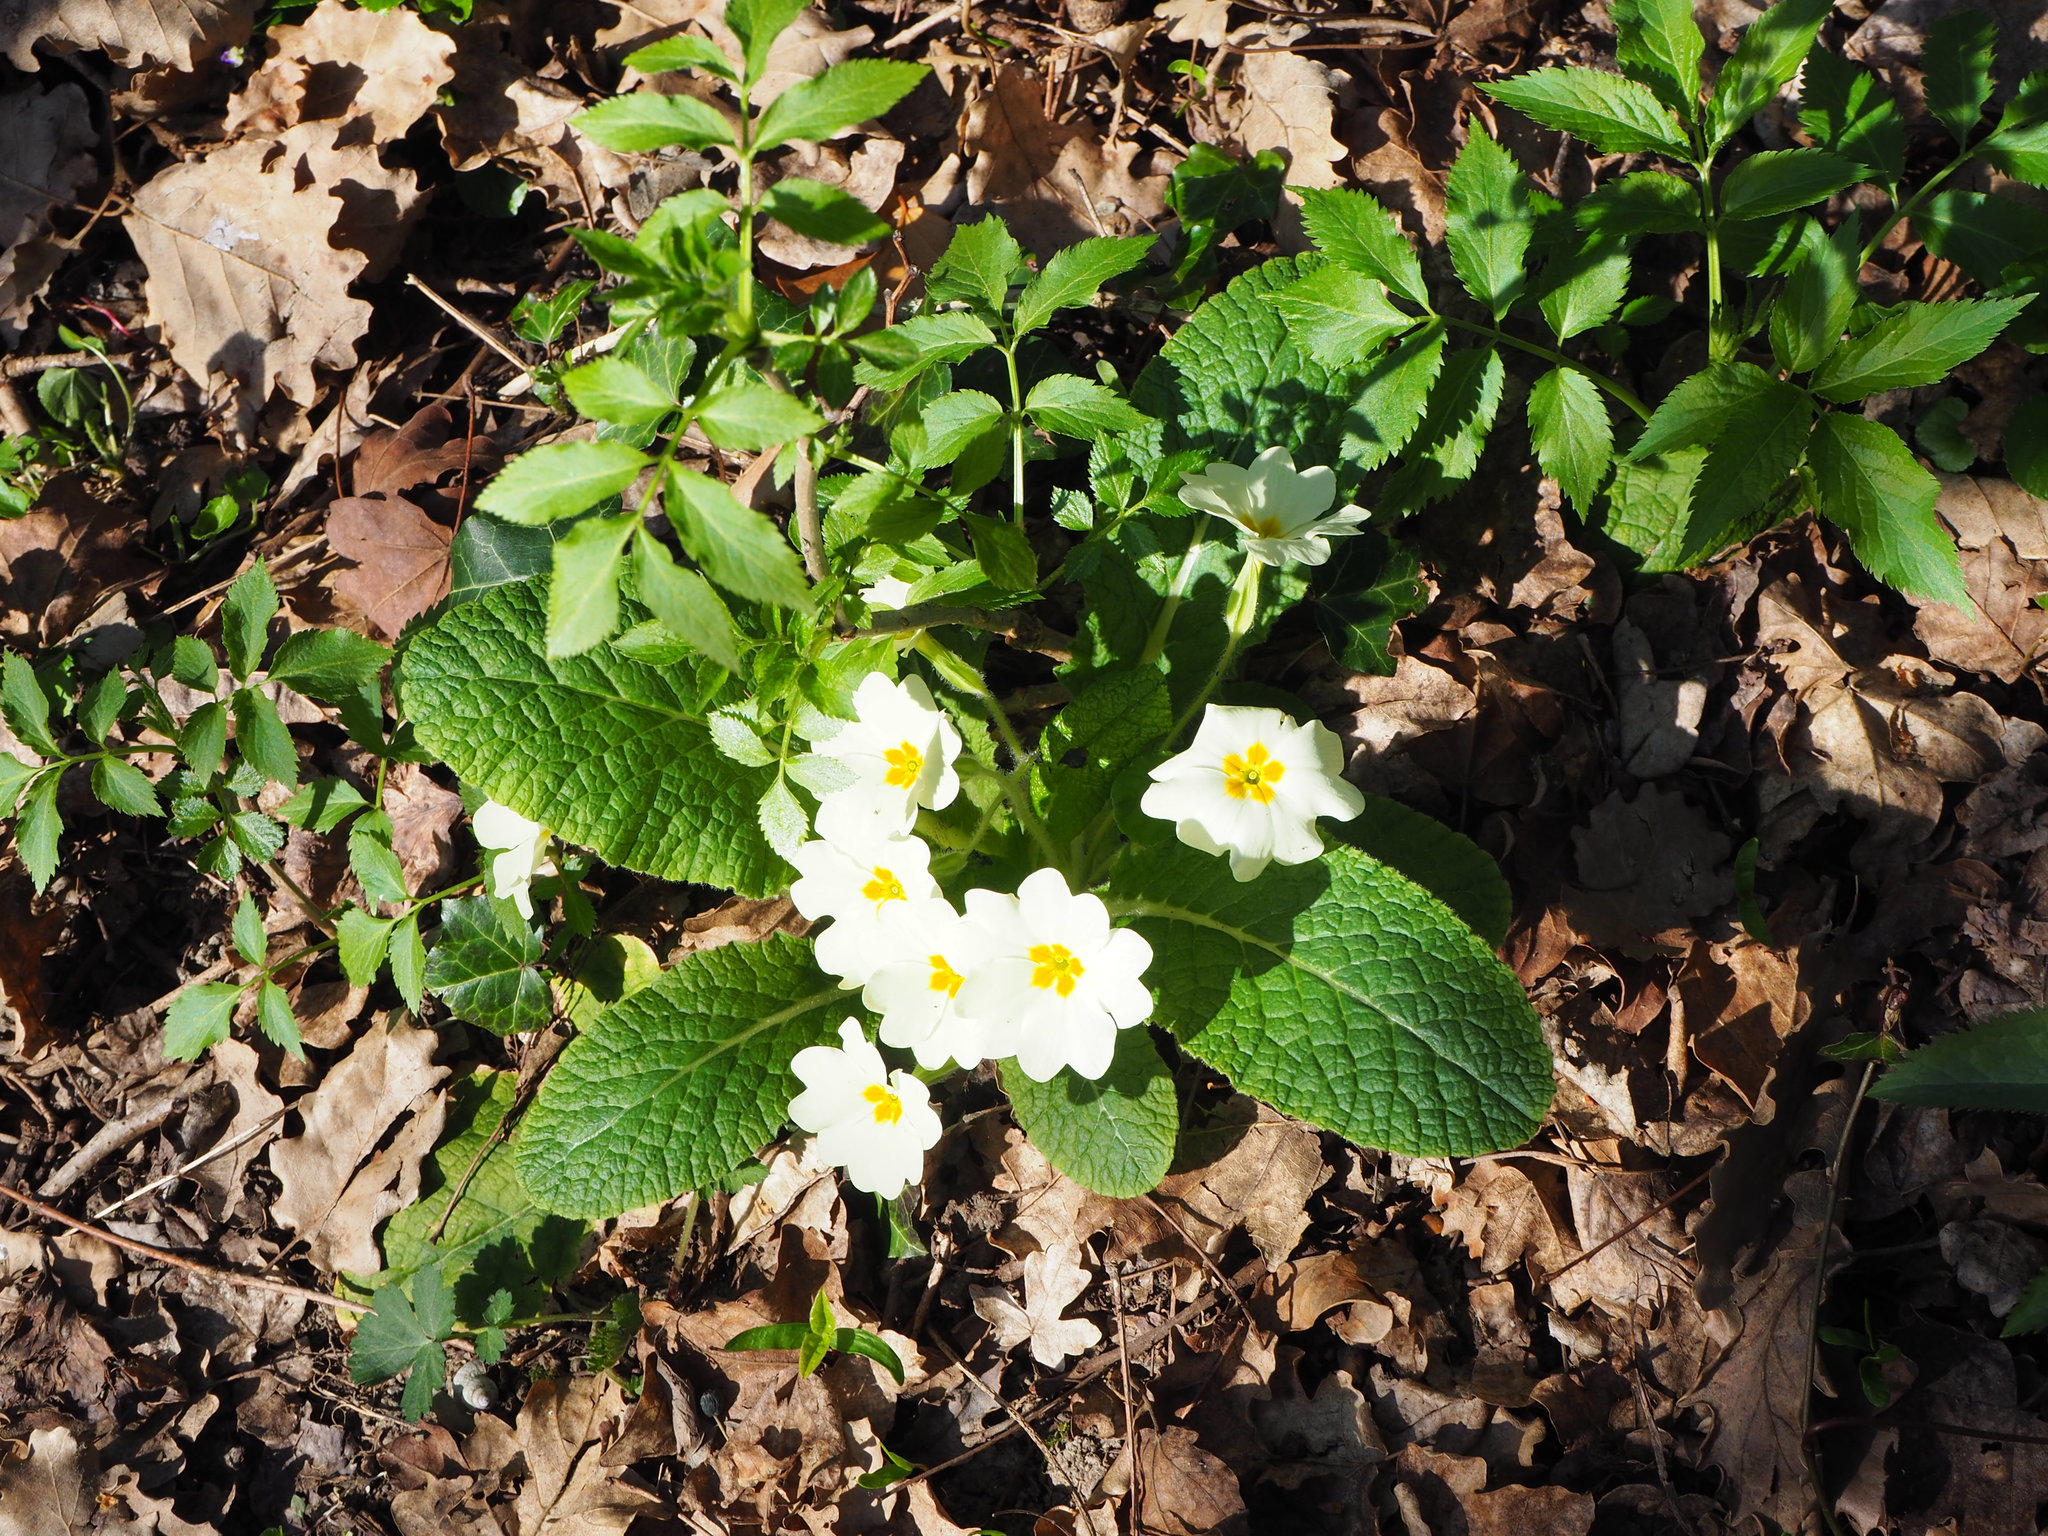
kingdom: Plantae
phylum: Tracheophyta
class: Magnoliopsida
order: Ericales
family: Primulaceae
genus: Primula
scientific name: Primula vulgaris
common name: Primrose
